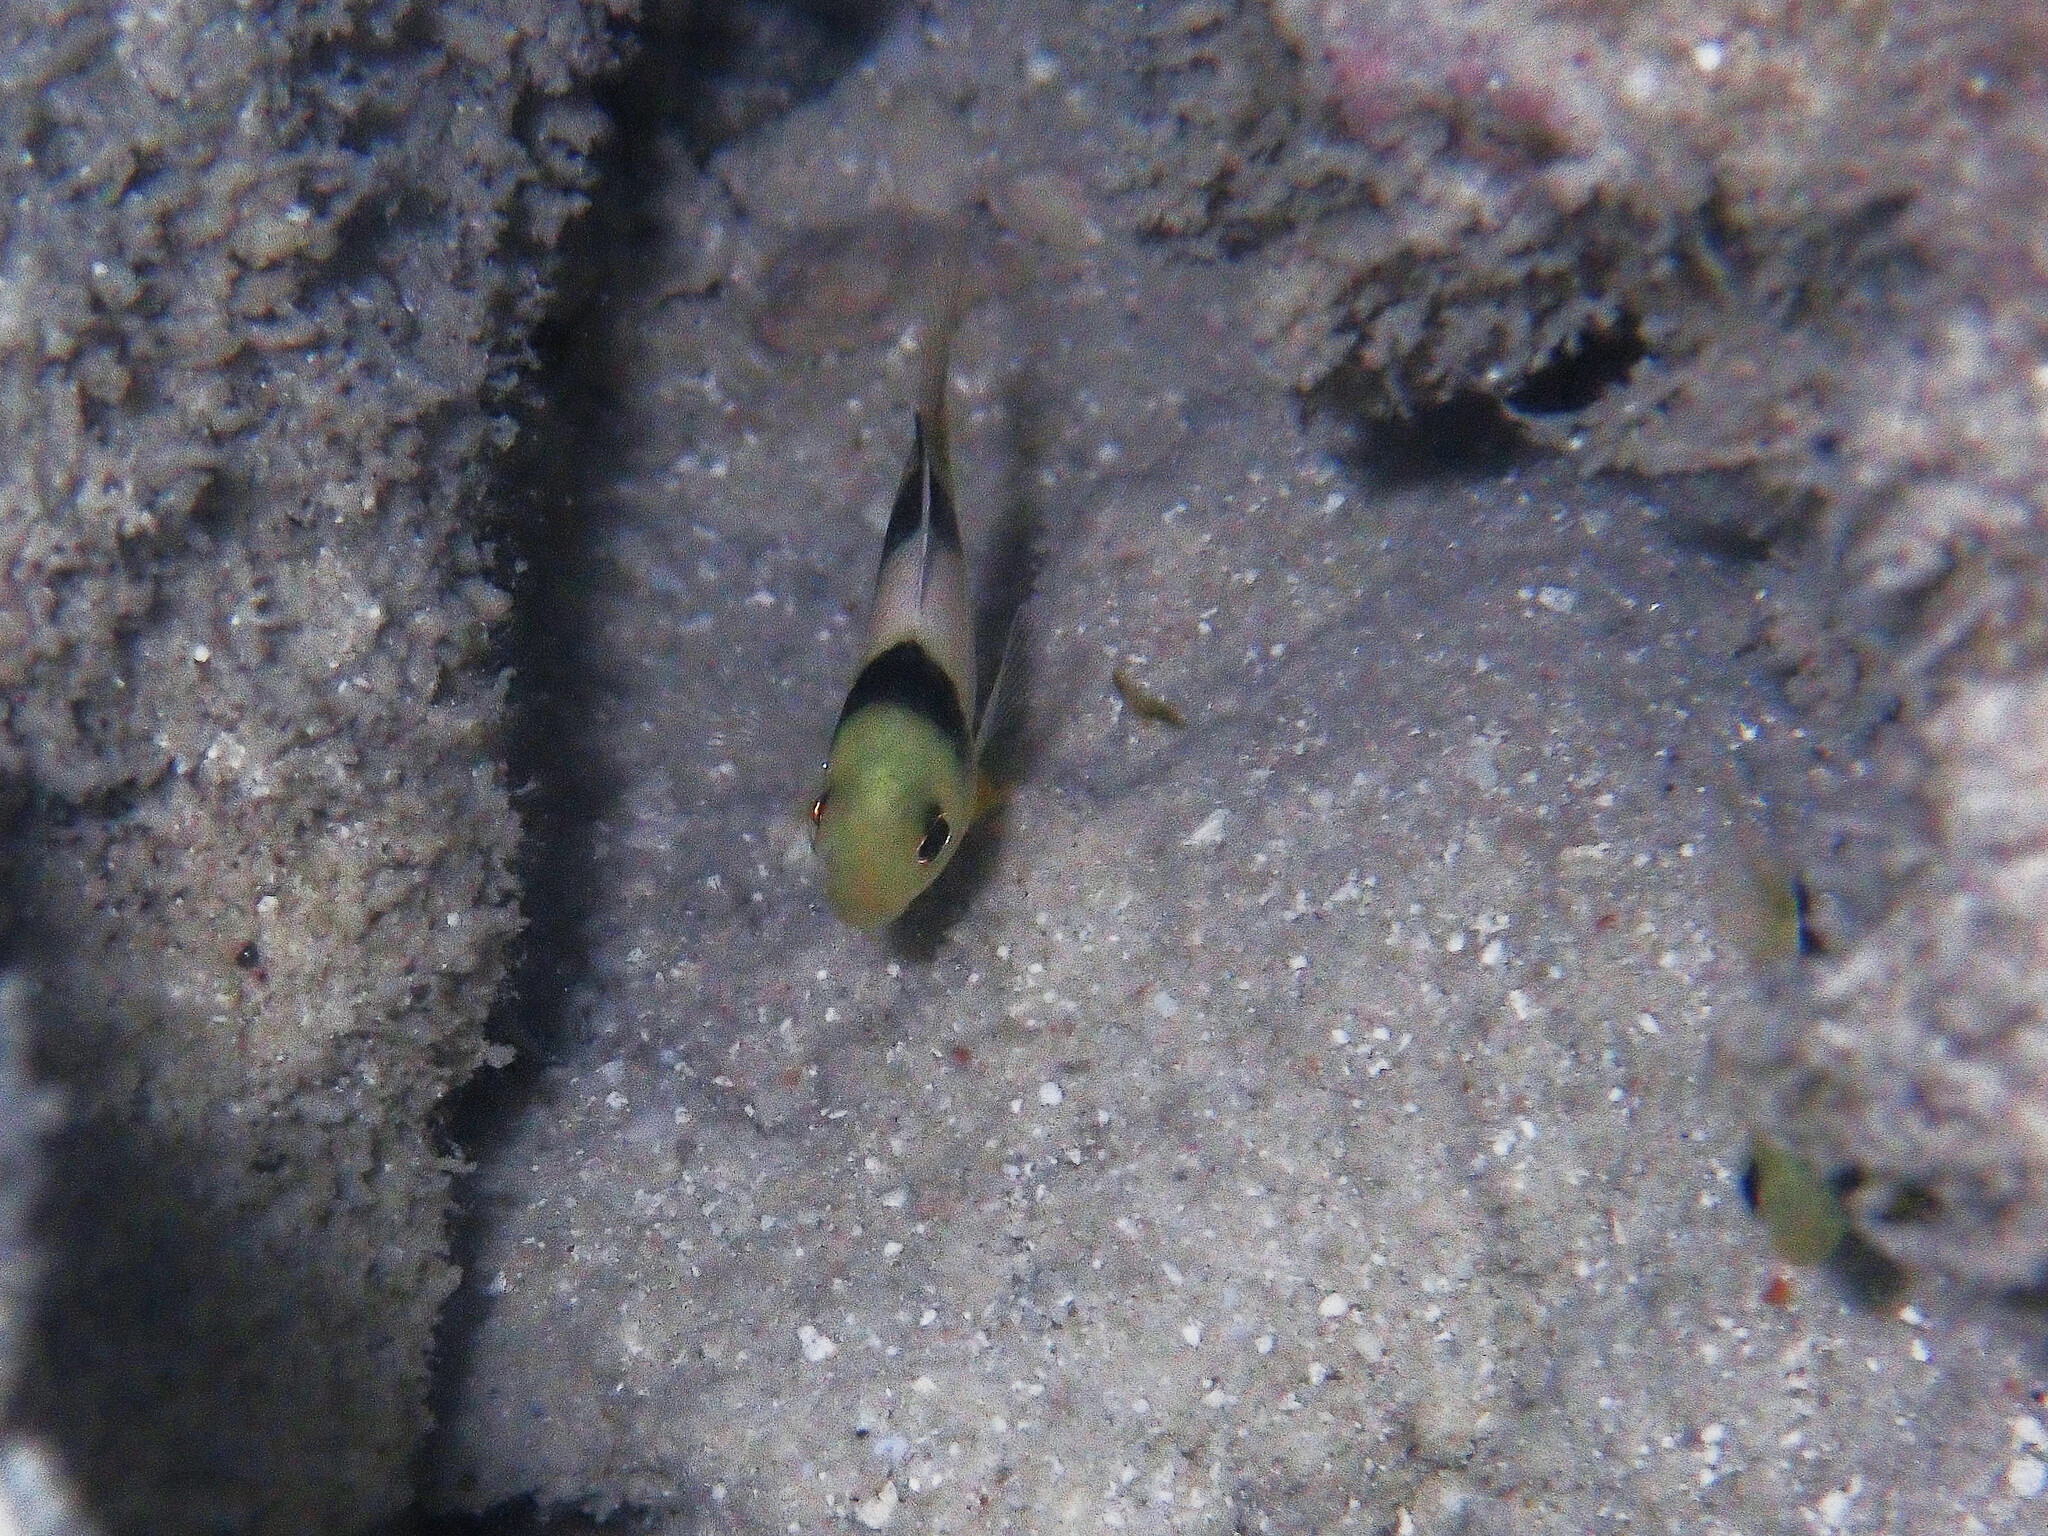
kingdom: Animalia
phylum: Chordata
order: Perciformes
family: Pomacentridae
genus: Dischistodus
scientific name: Dischistodus perspicillatus
